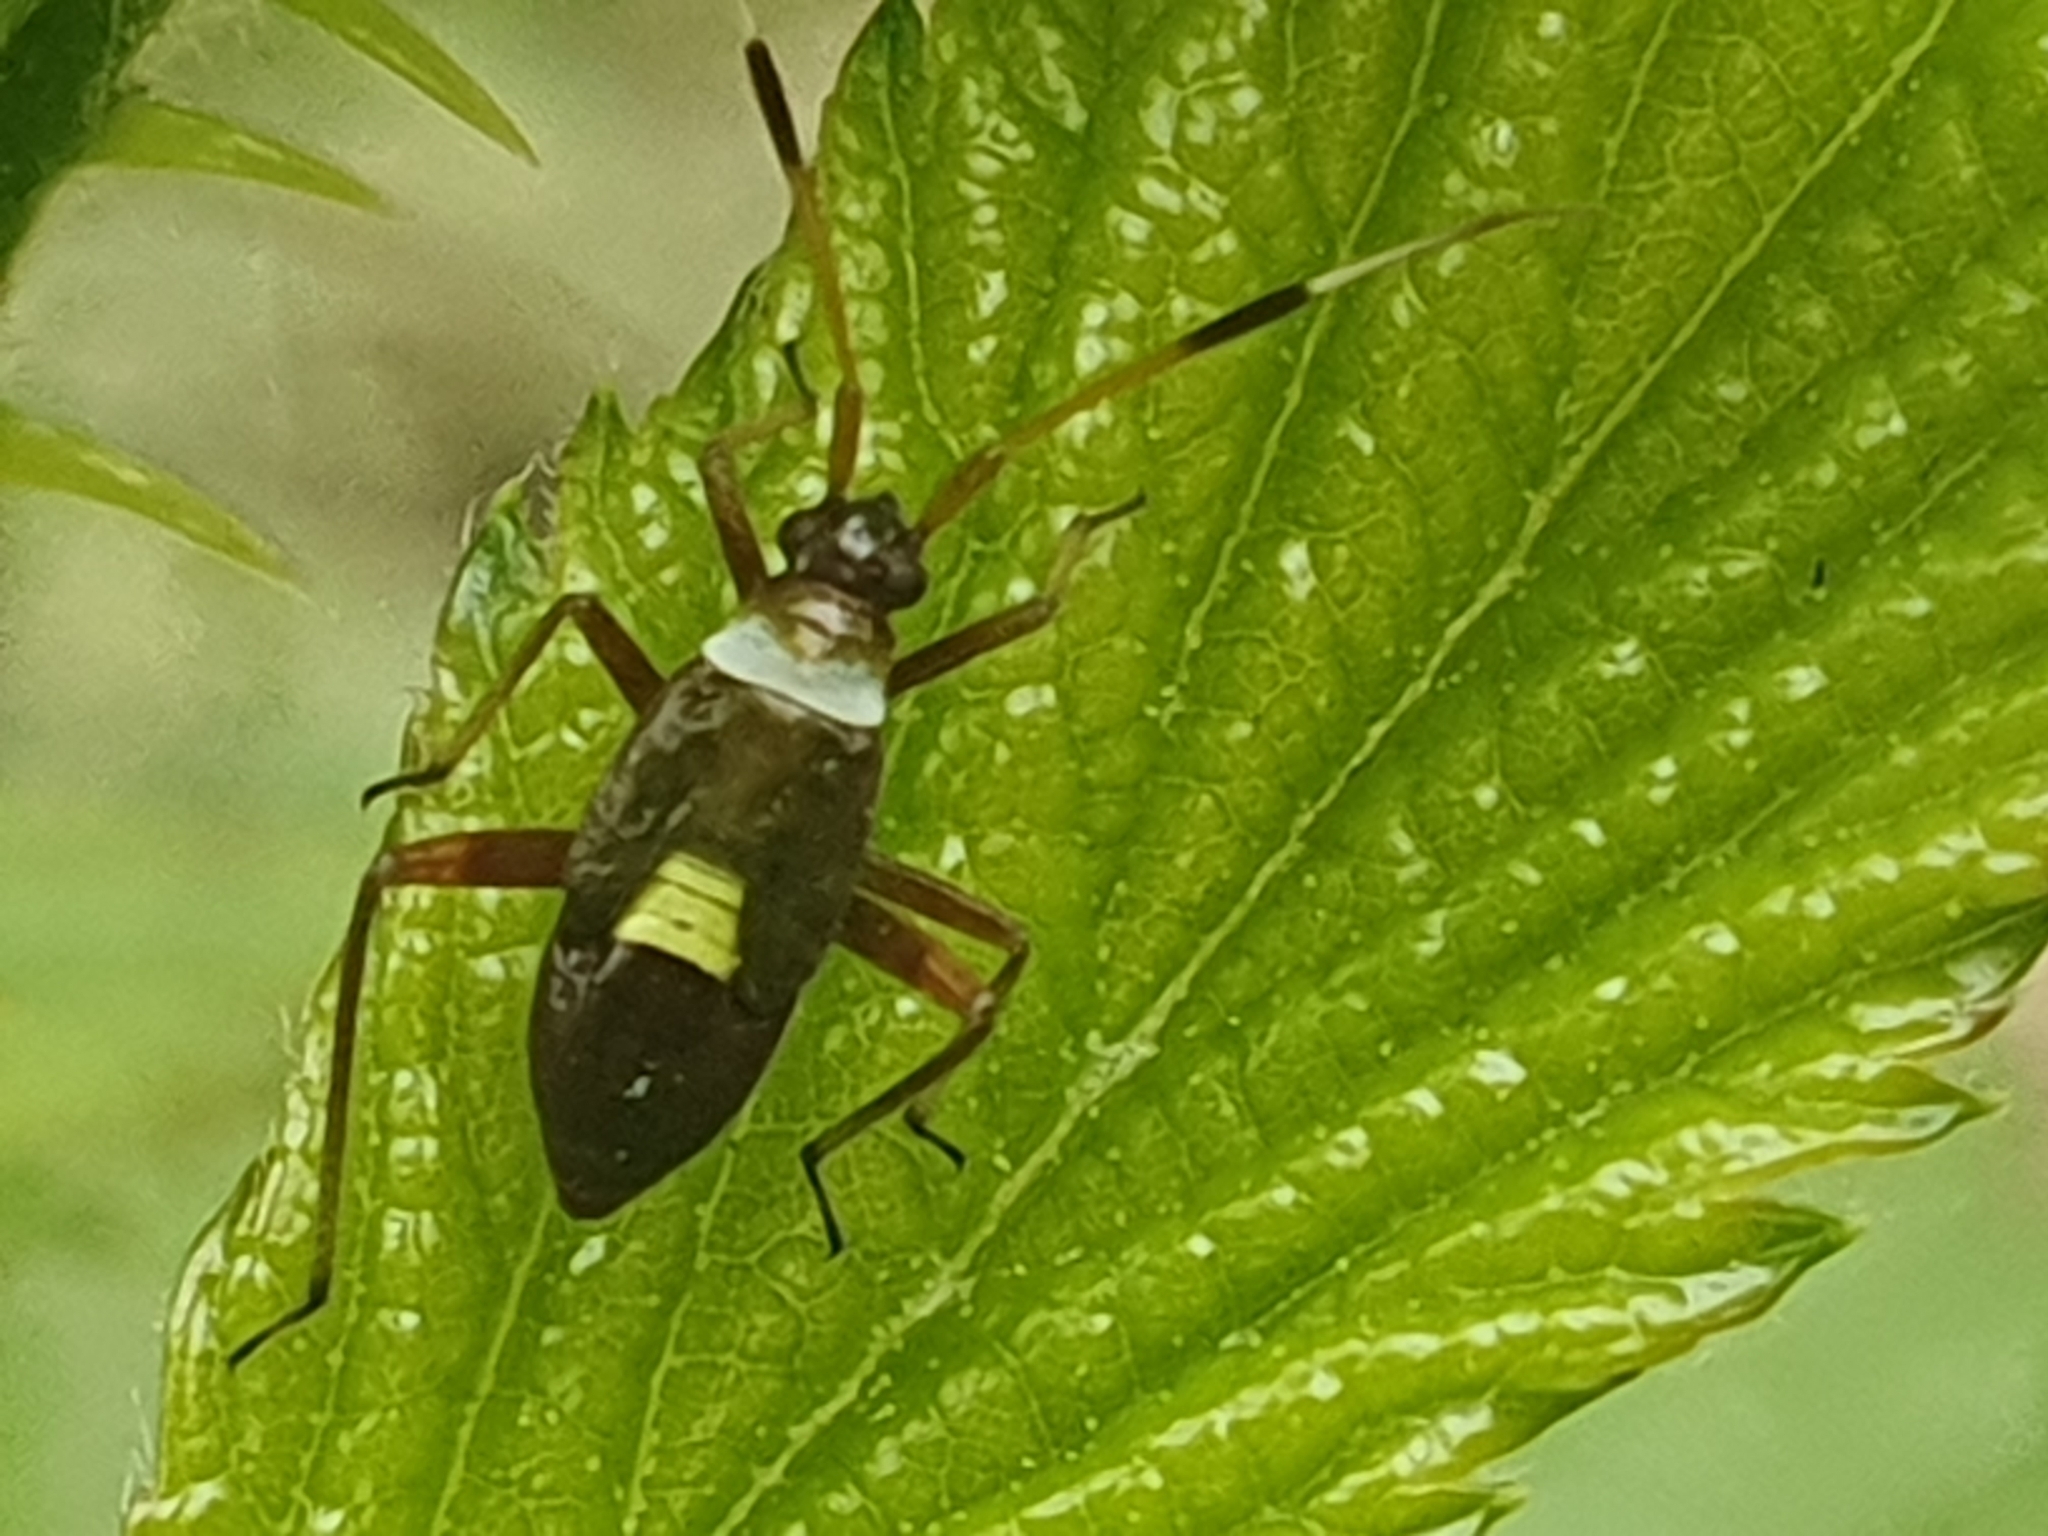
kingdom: Animalia
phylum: Arthropoda
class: Insecta
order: Hemiptera
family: Miridae
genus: Closterotomus
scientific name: Closterotomus biclavatus
